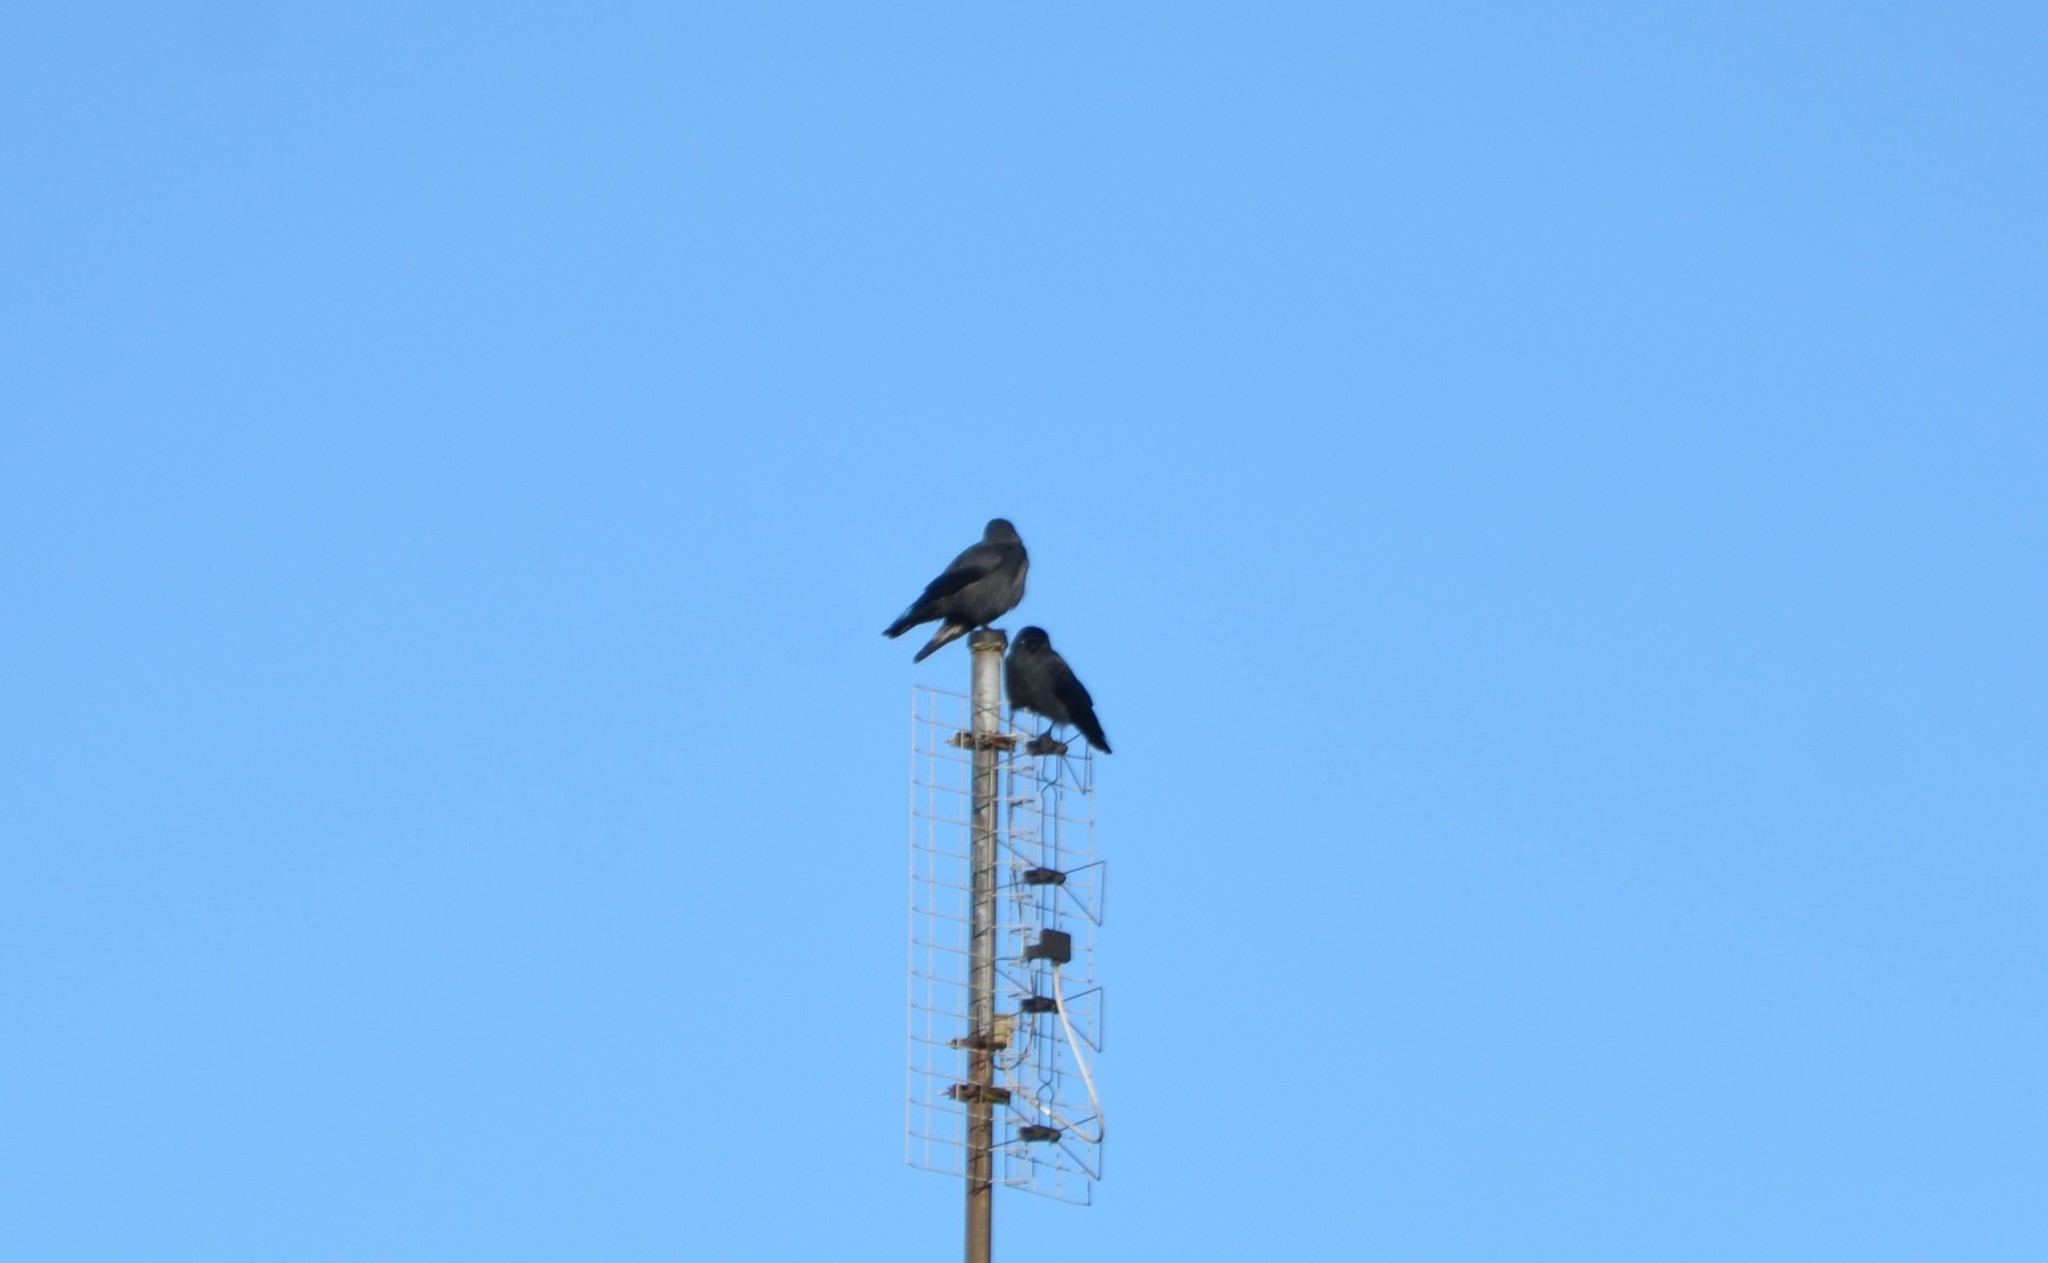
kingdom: Animalia
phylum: Chordata
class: Aves
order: Passeriformes
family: Corvidae
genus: Coloeus
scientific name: Coloeus monedula
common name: Western jackdaw
